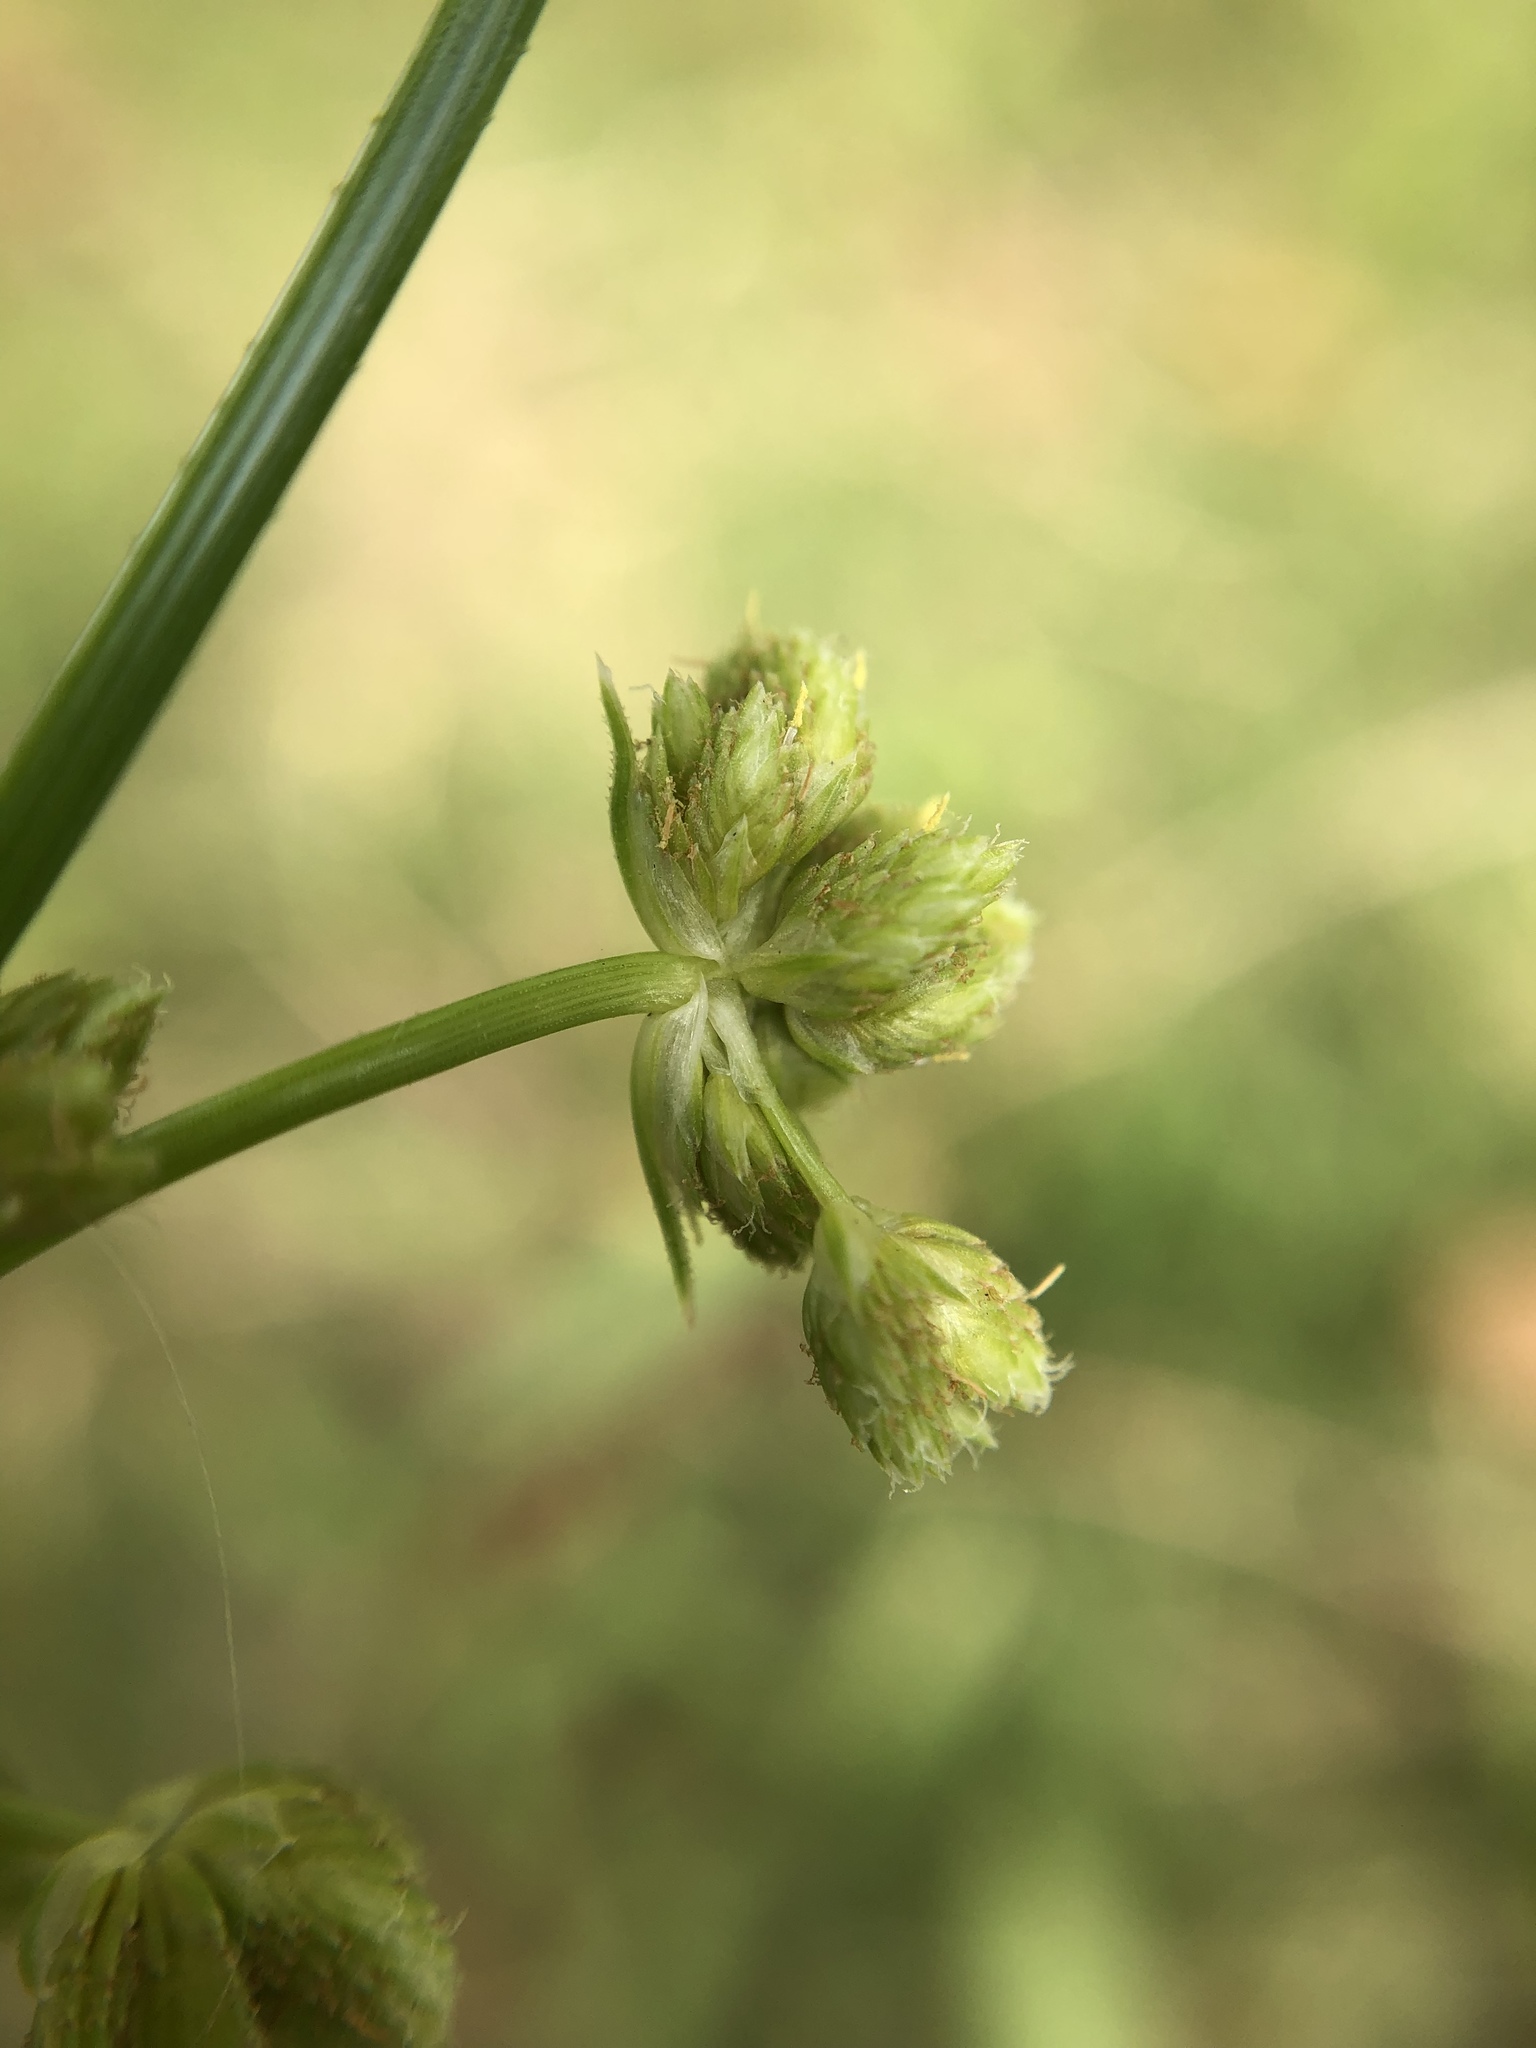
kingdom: Plantae
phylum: Tracheophyta
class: Liliopsida
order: Poales
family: Cyperaceae
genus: Cyperus
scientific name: Cyperus eragrostis
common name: Tall flatsedge
